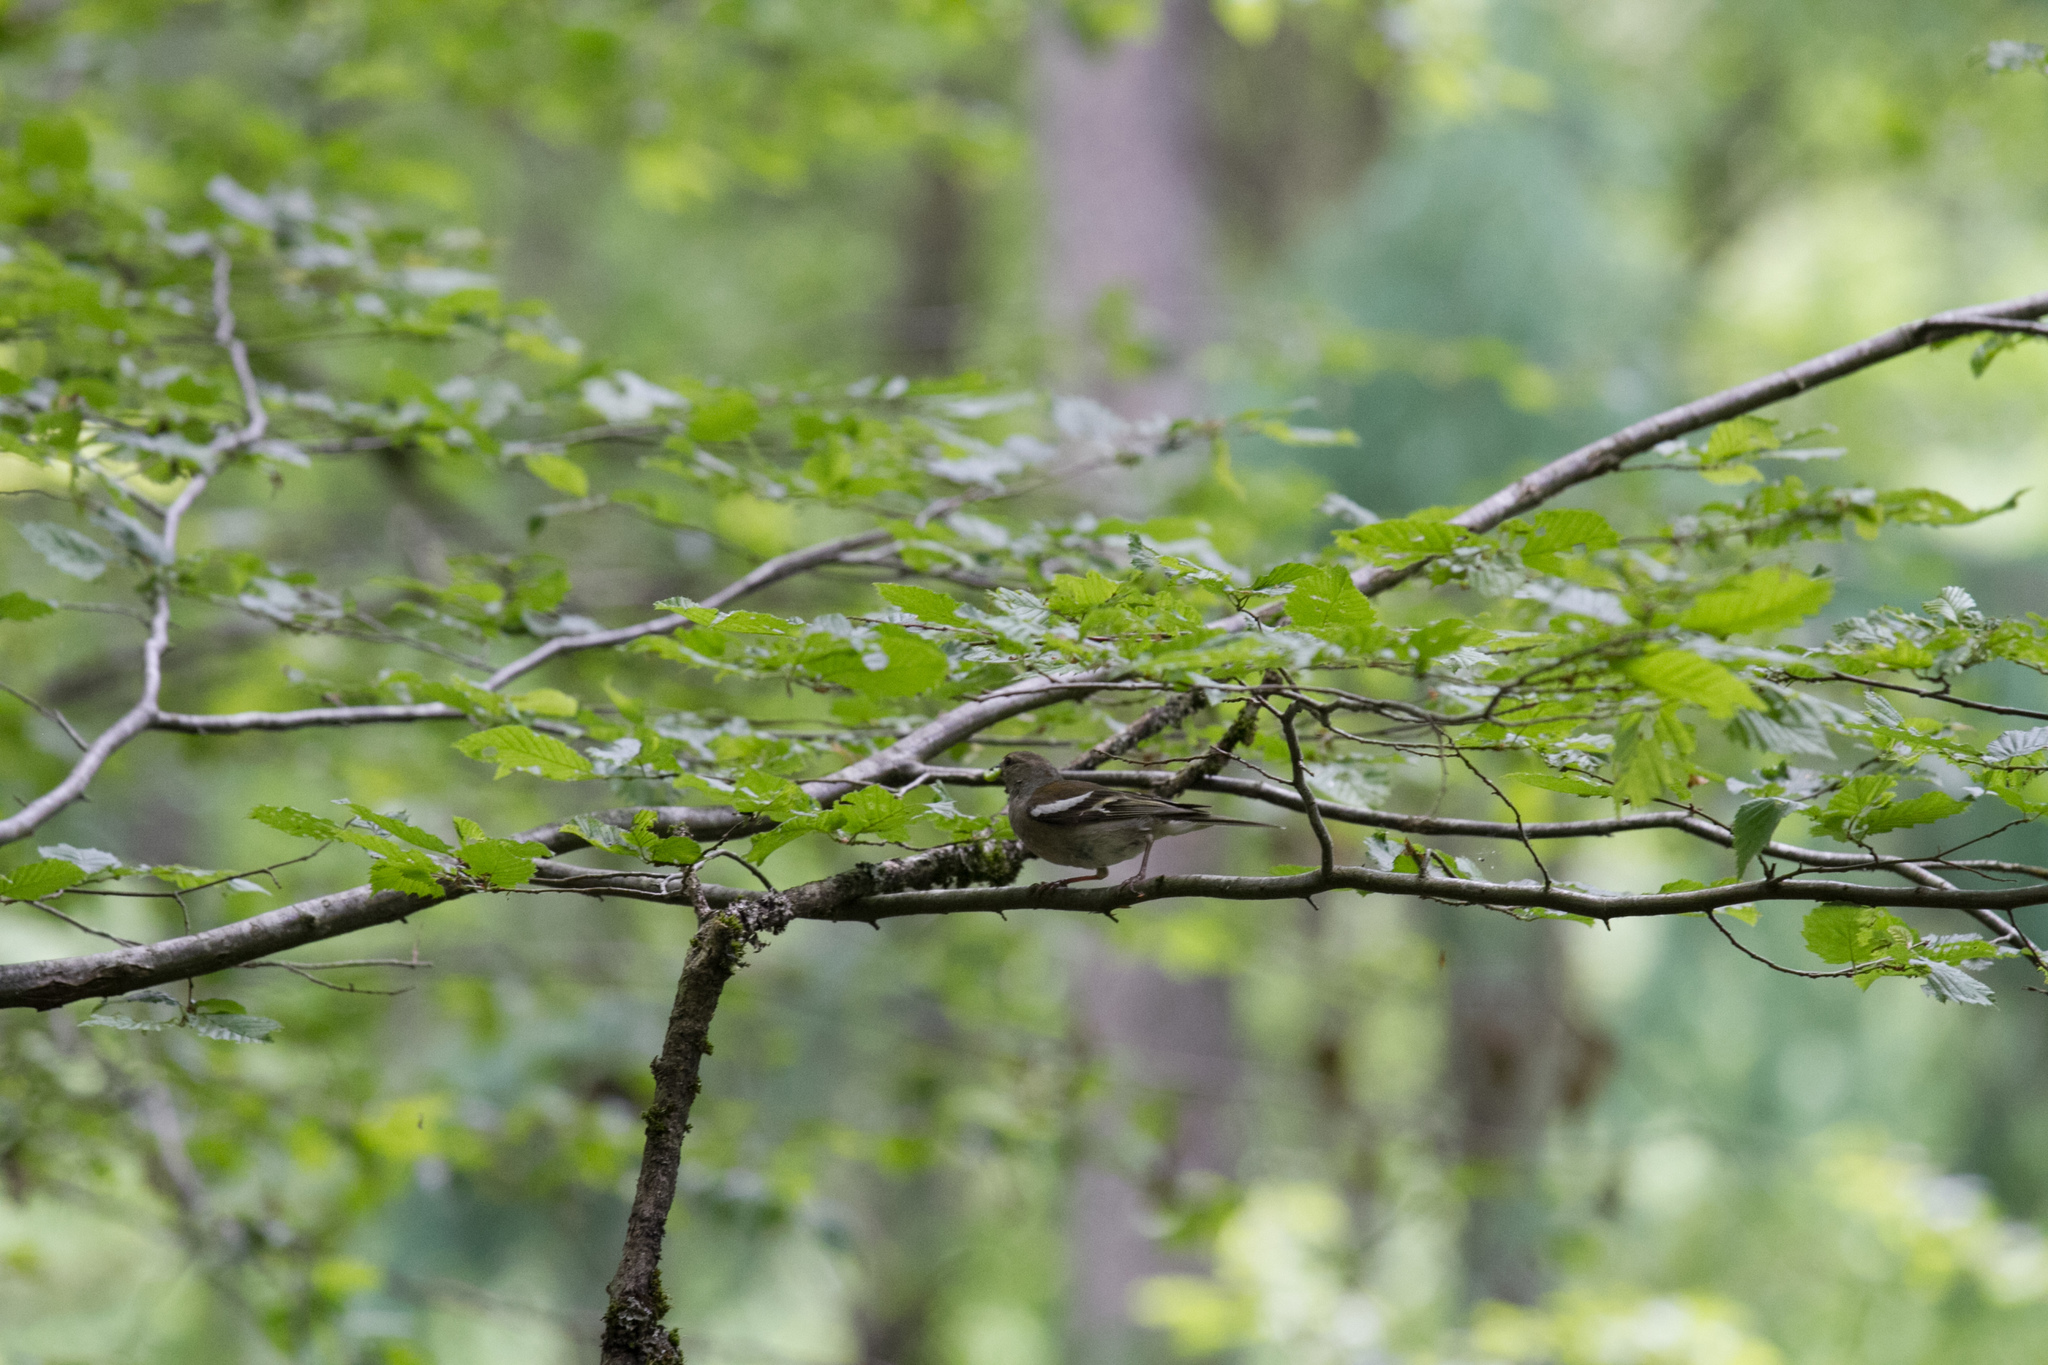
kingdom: Animalia
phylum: Chordata
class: Aves
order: Passeriformes
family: Fringillidae
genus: Fringilla
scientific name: Fringilla coelebs
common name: Common chaffinch
